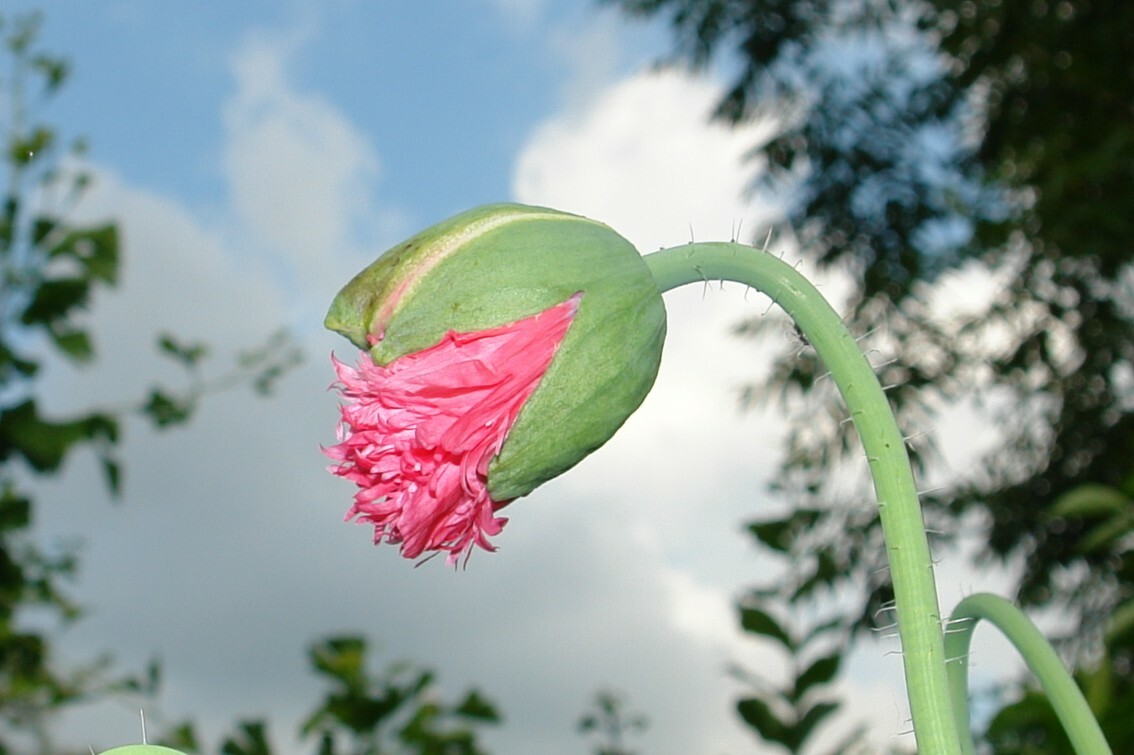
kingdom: Plantae
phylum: Tracheophyta
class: Magnoliopsida
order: Ranunculales
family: Papaveraceae
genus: Papaver
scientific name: Papaver somniferum
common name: Opium poppy
